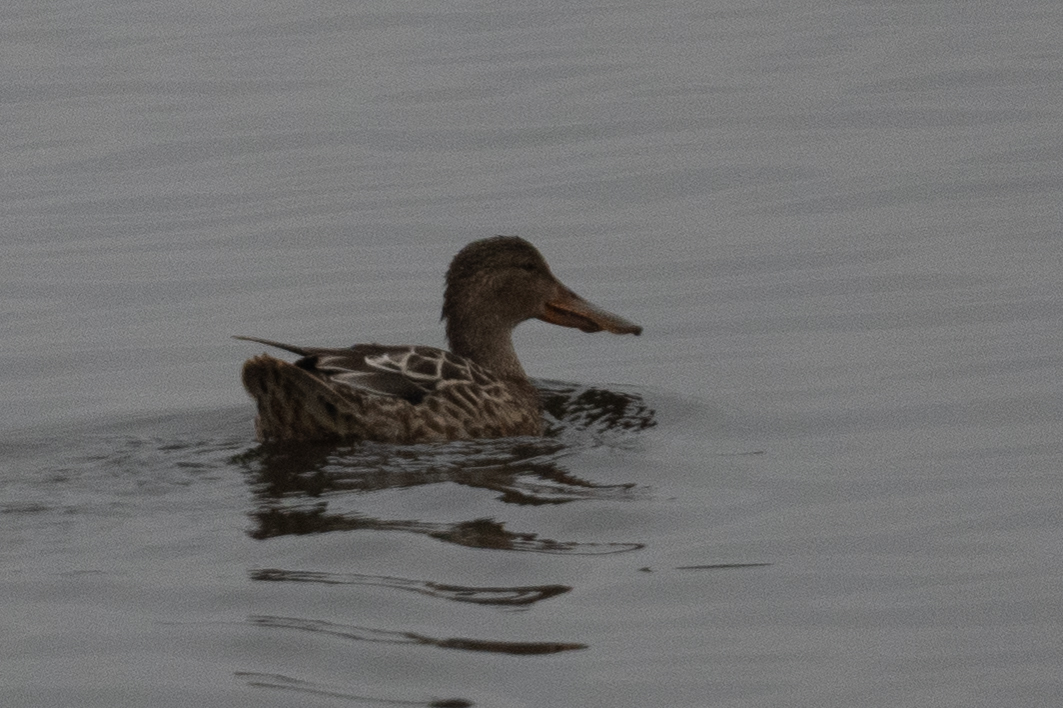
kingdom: Animalia
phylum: Chordata
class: Aves
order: Anseriformes
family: Anatidae
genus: Spatula
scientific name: Spatula clypeata
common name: Northern shoveler
